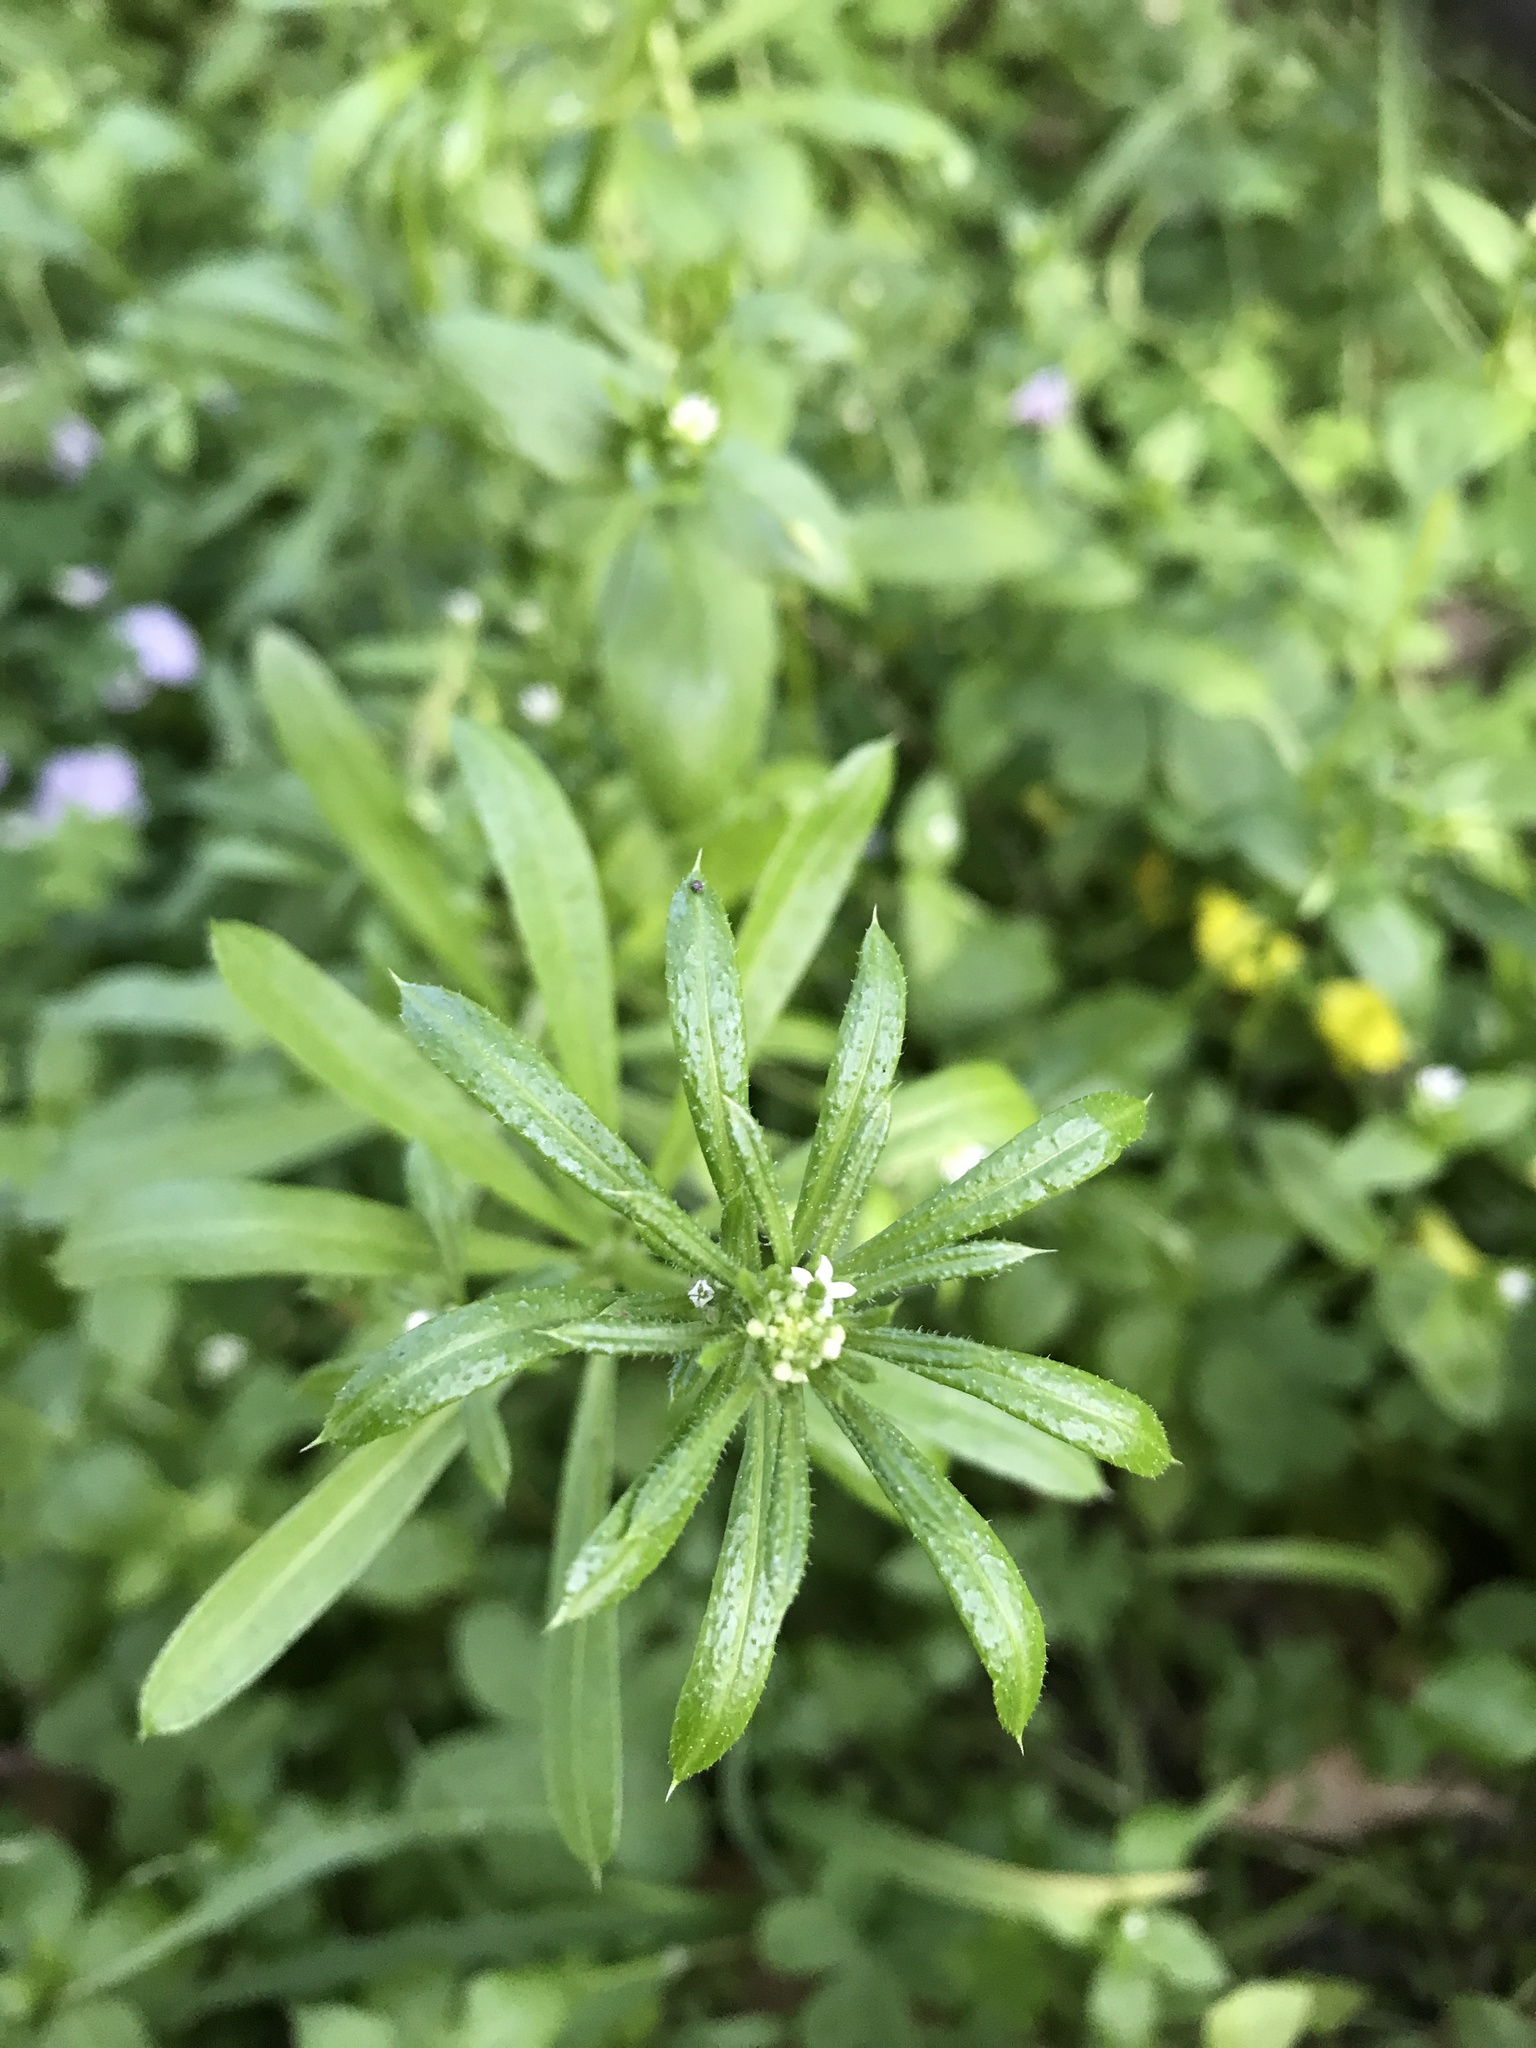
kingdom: Plantae
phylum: Tracheophyta
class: Magnoliopsida
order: Gentianales
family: Rubiaceae
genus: Galium
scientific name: Galium aparine
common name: Cleavers
